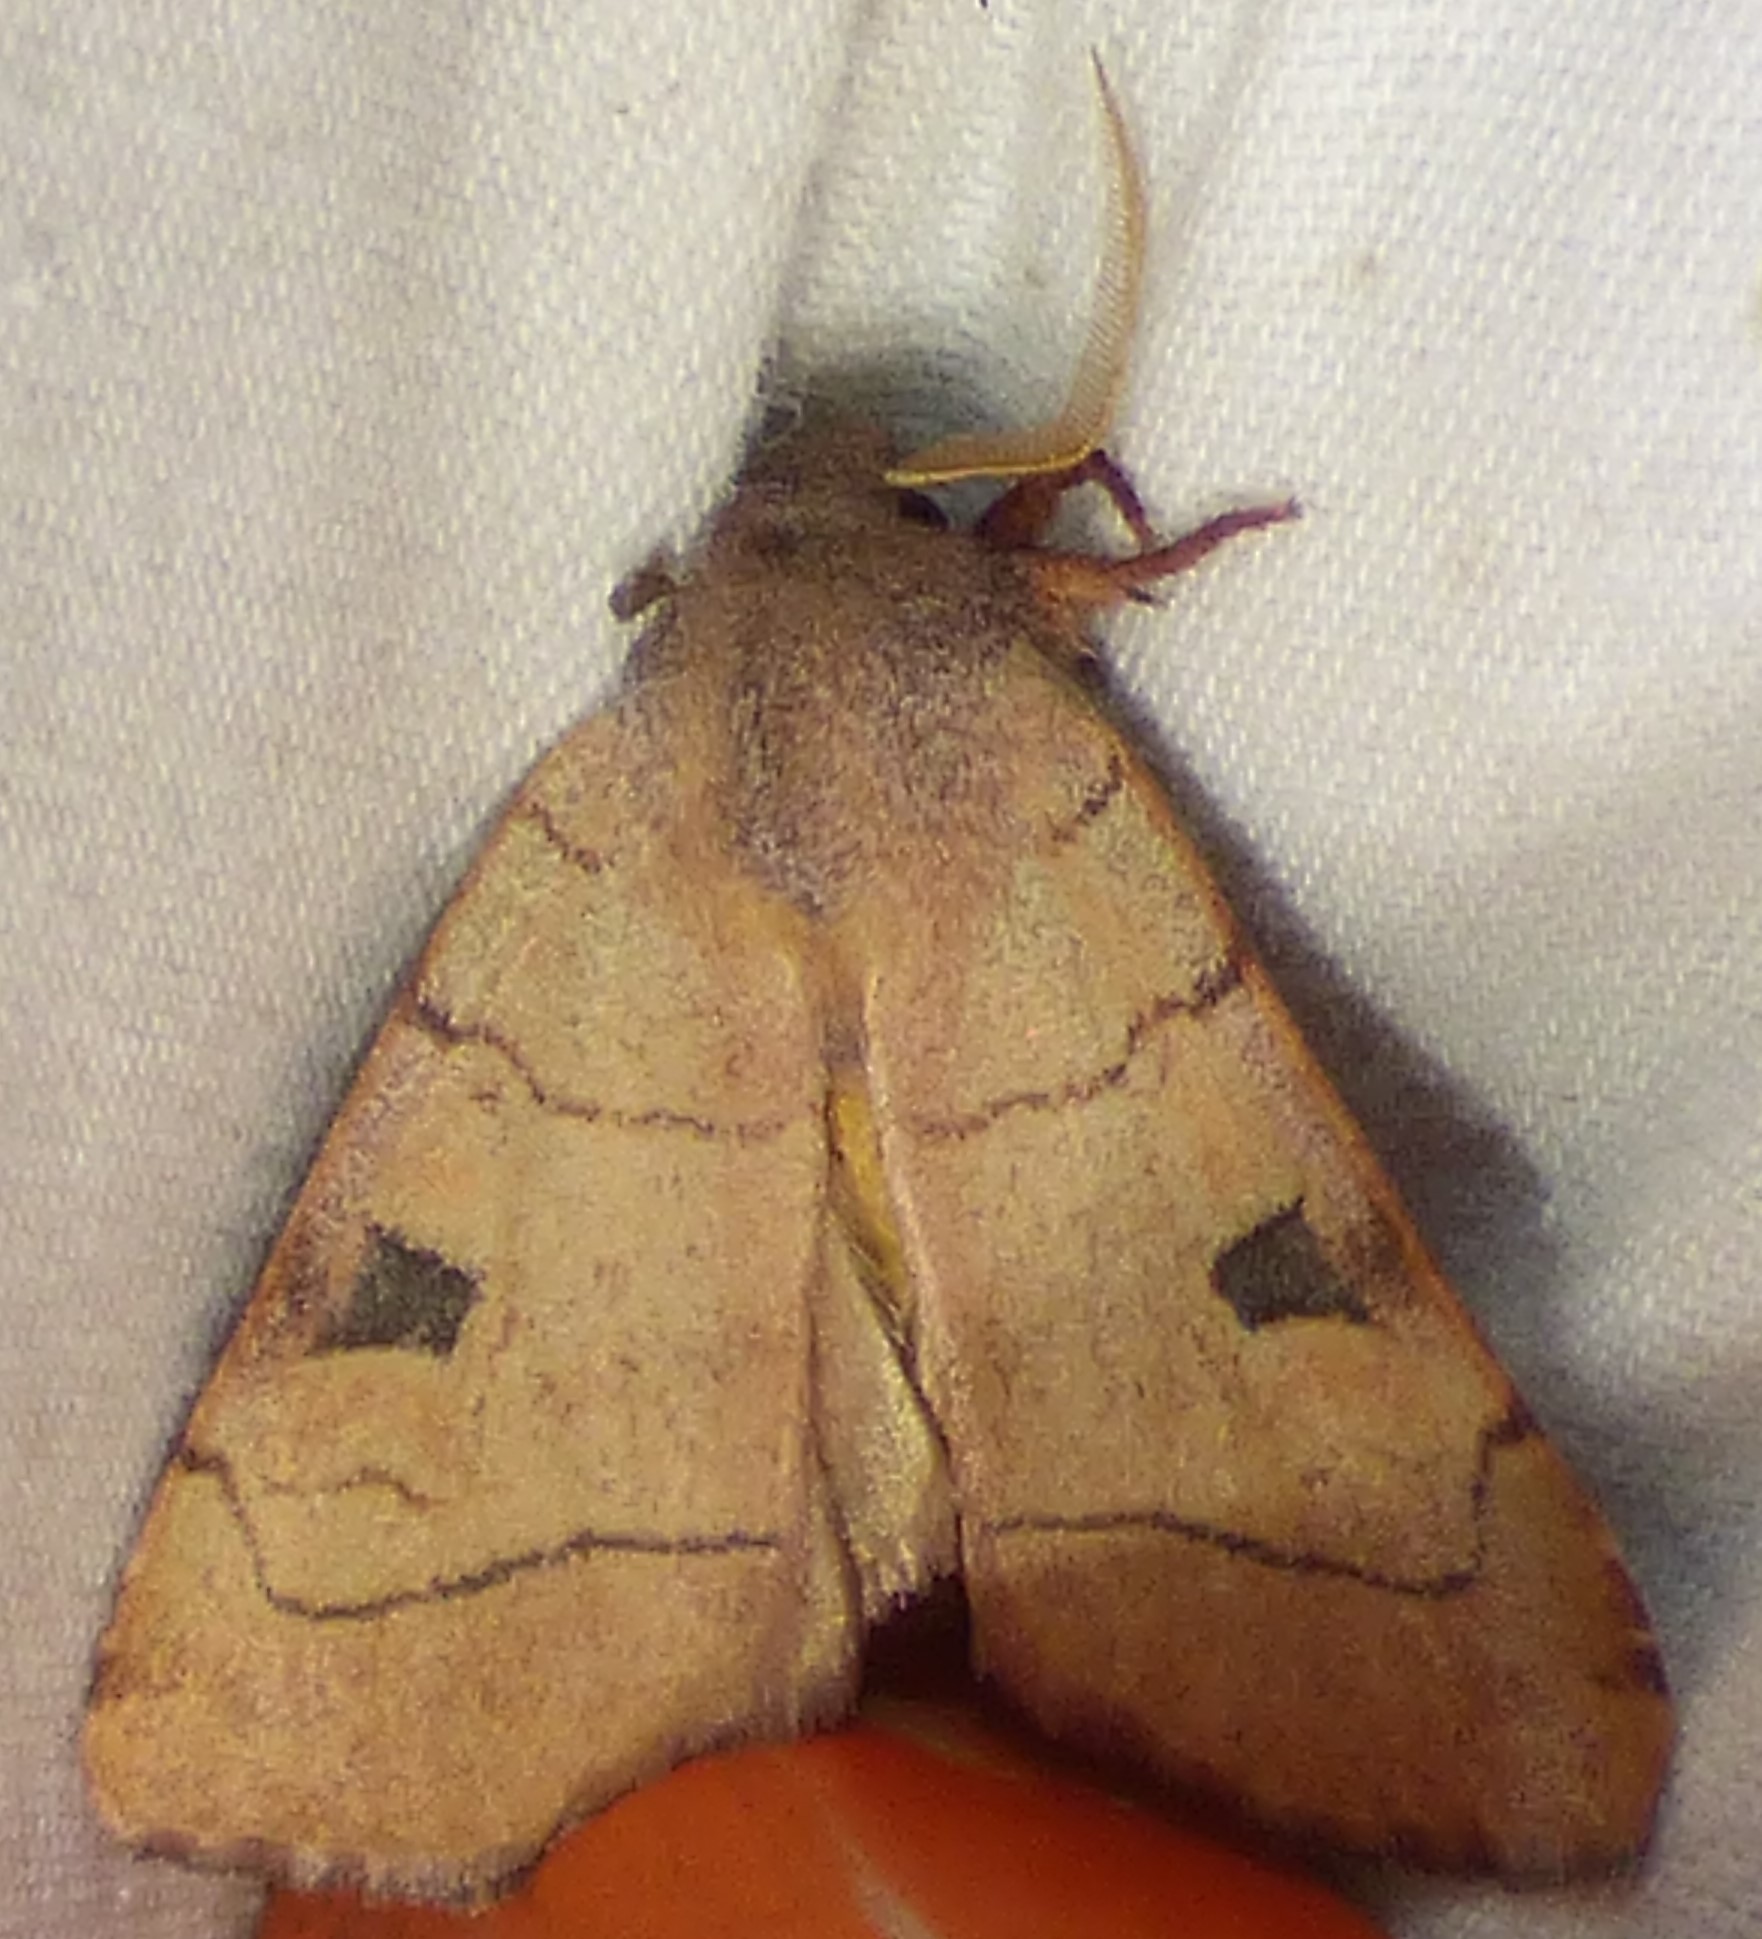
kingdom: Animalia
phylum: Arthropoda
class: Insecta
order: Lepidoptera
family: Noctuidae
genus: Choephora
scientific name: Choephora fungorum
